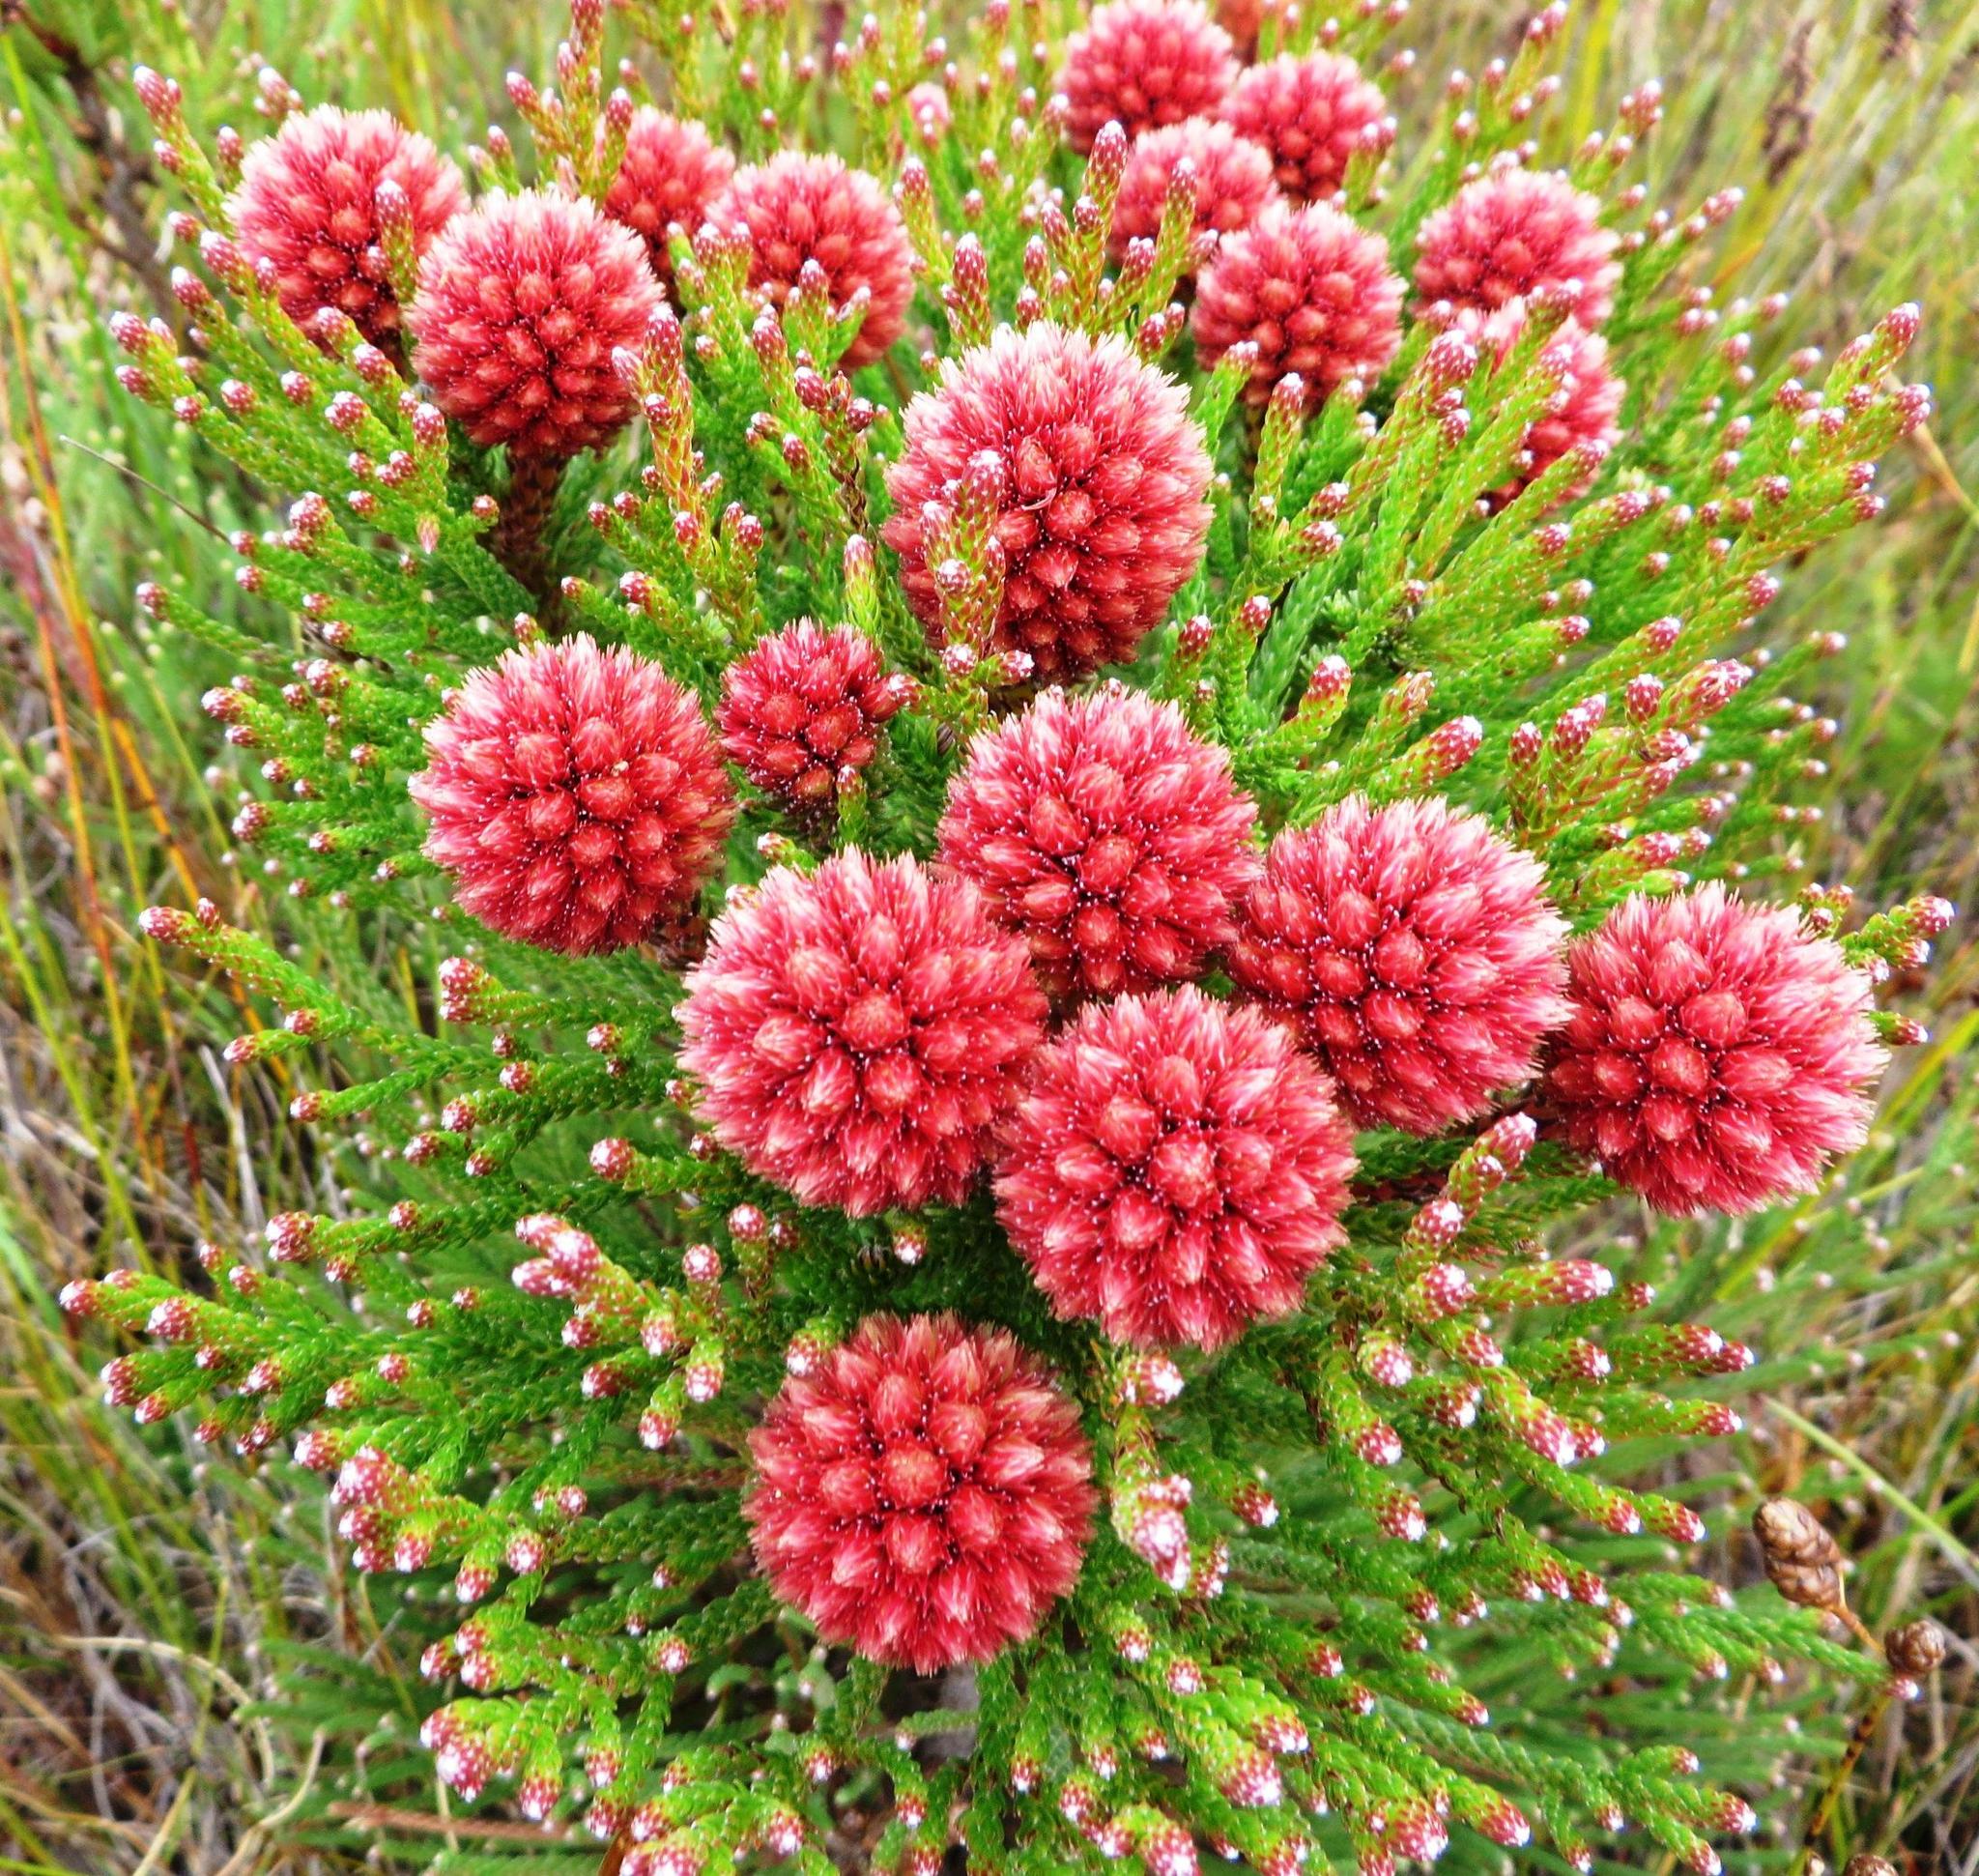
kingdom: Plantae
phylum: Tracheophyta
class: Magnoliopsida
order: Bruniales
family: Bruniaceae
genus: Brunia
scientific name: Brunia fragarioides
